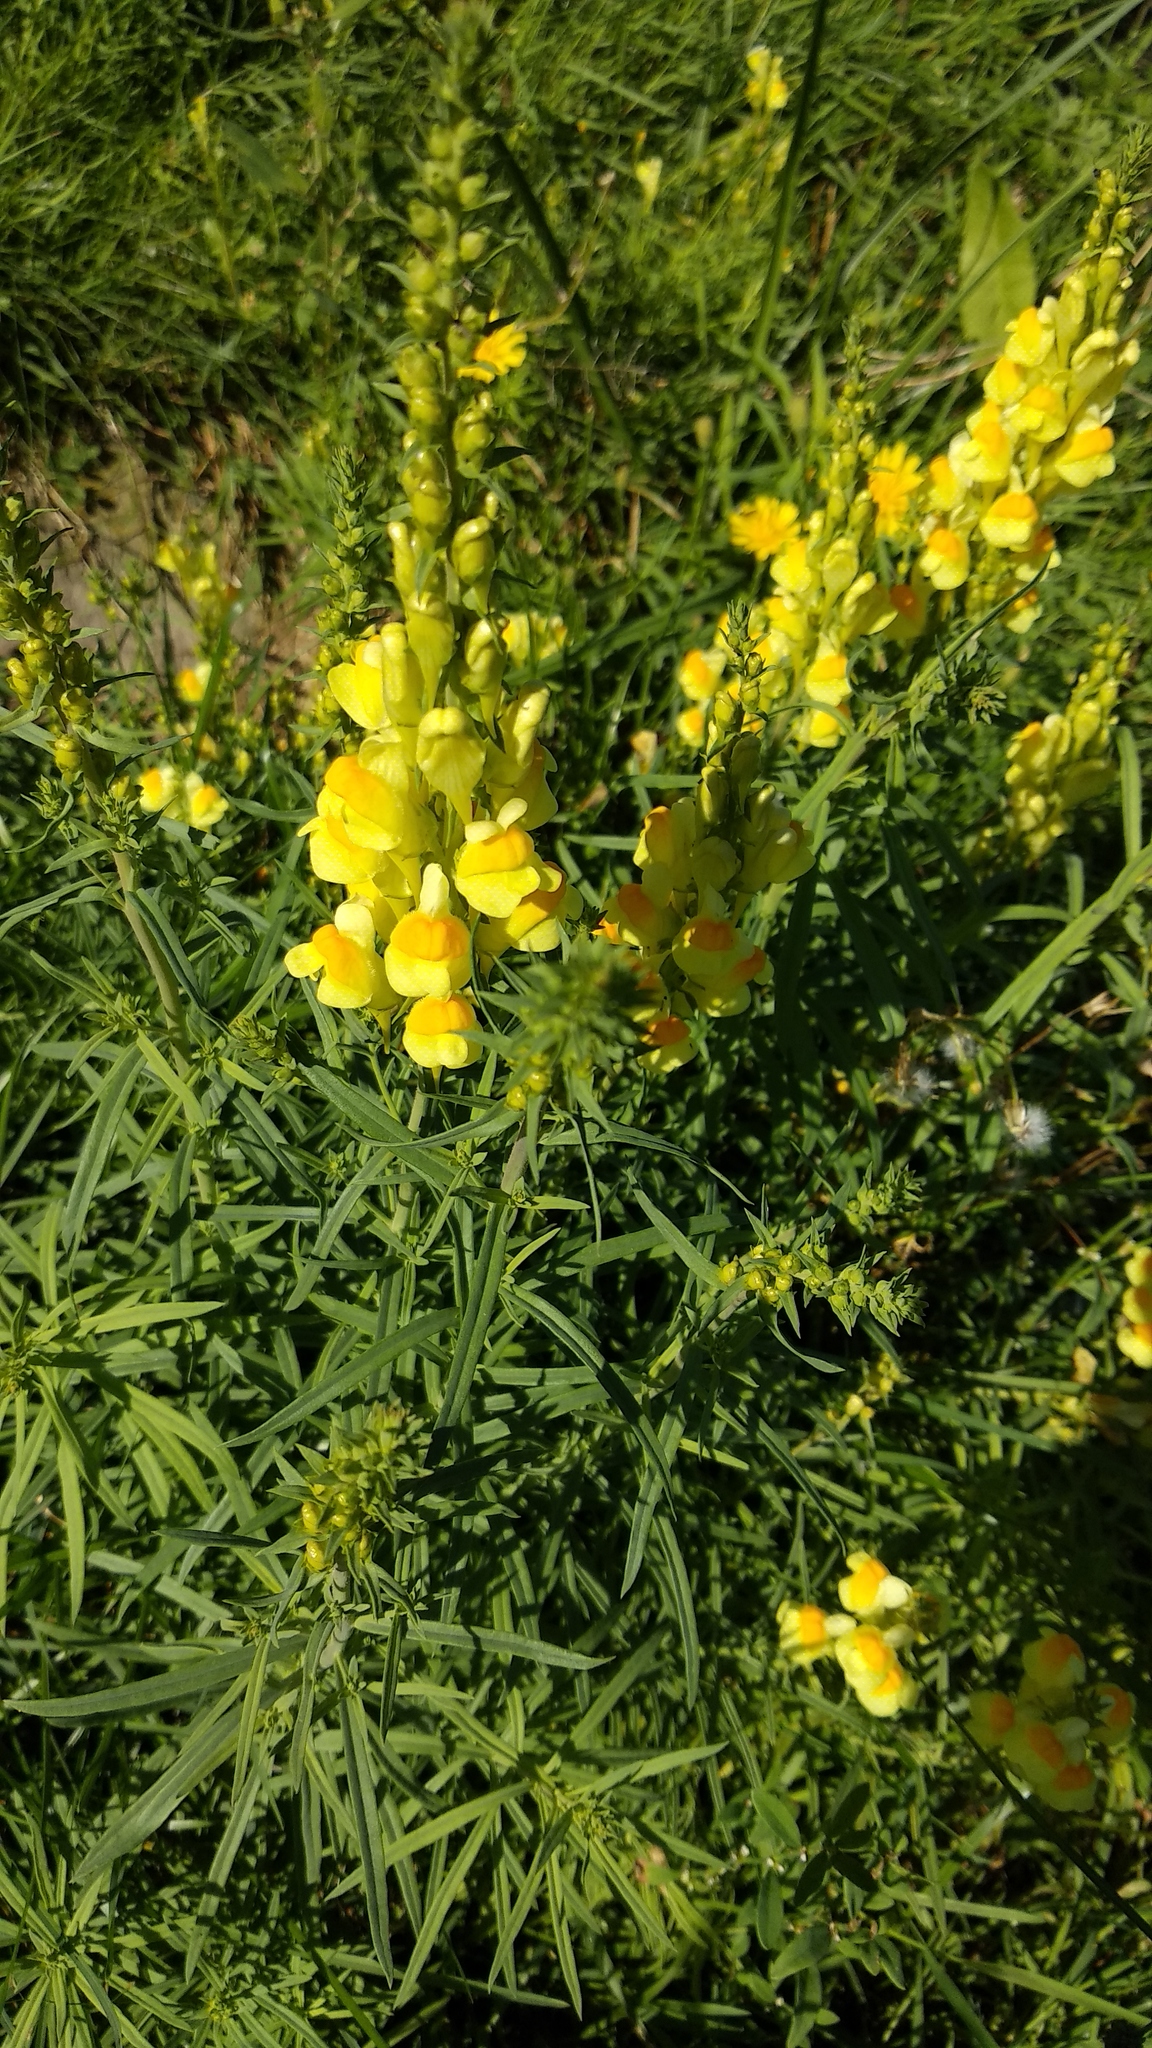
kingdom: Plantae
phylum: Tracheophyta
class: Magnoliopsida
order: Lamiales
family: Plantaginaceae
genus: Linaria
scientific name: Linaria vulgaris
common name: Butter and eggs
